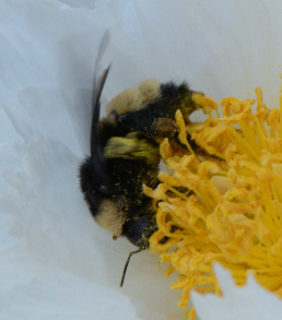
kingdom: Animalia
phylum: Arthropoda
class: Insecta
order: Hymenoptera
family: Apidae
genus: Bombus
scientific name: Bombus pensylvanicus
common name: Bumble bee
